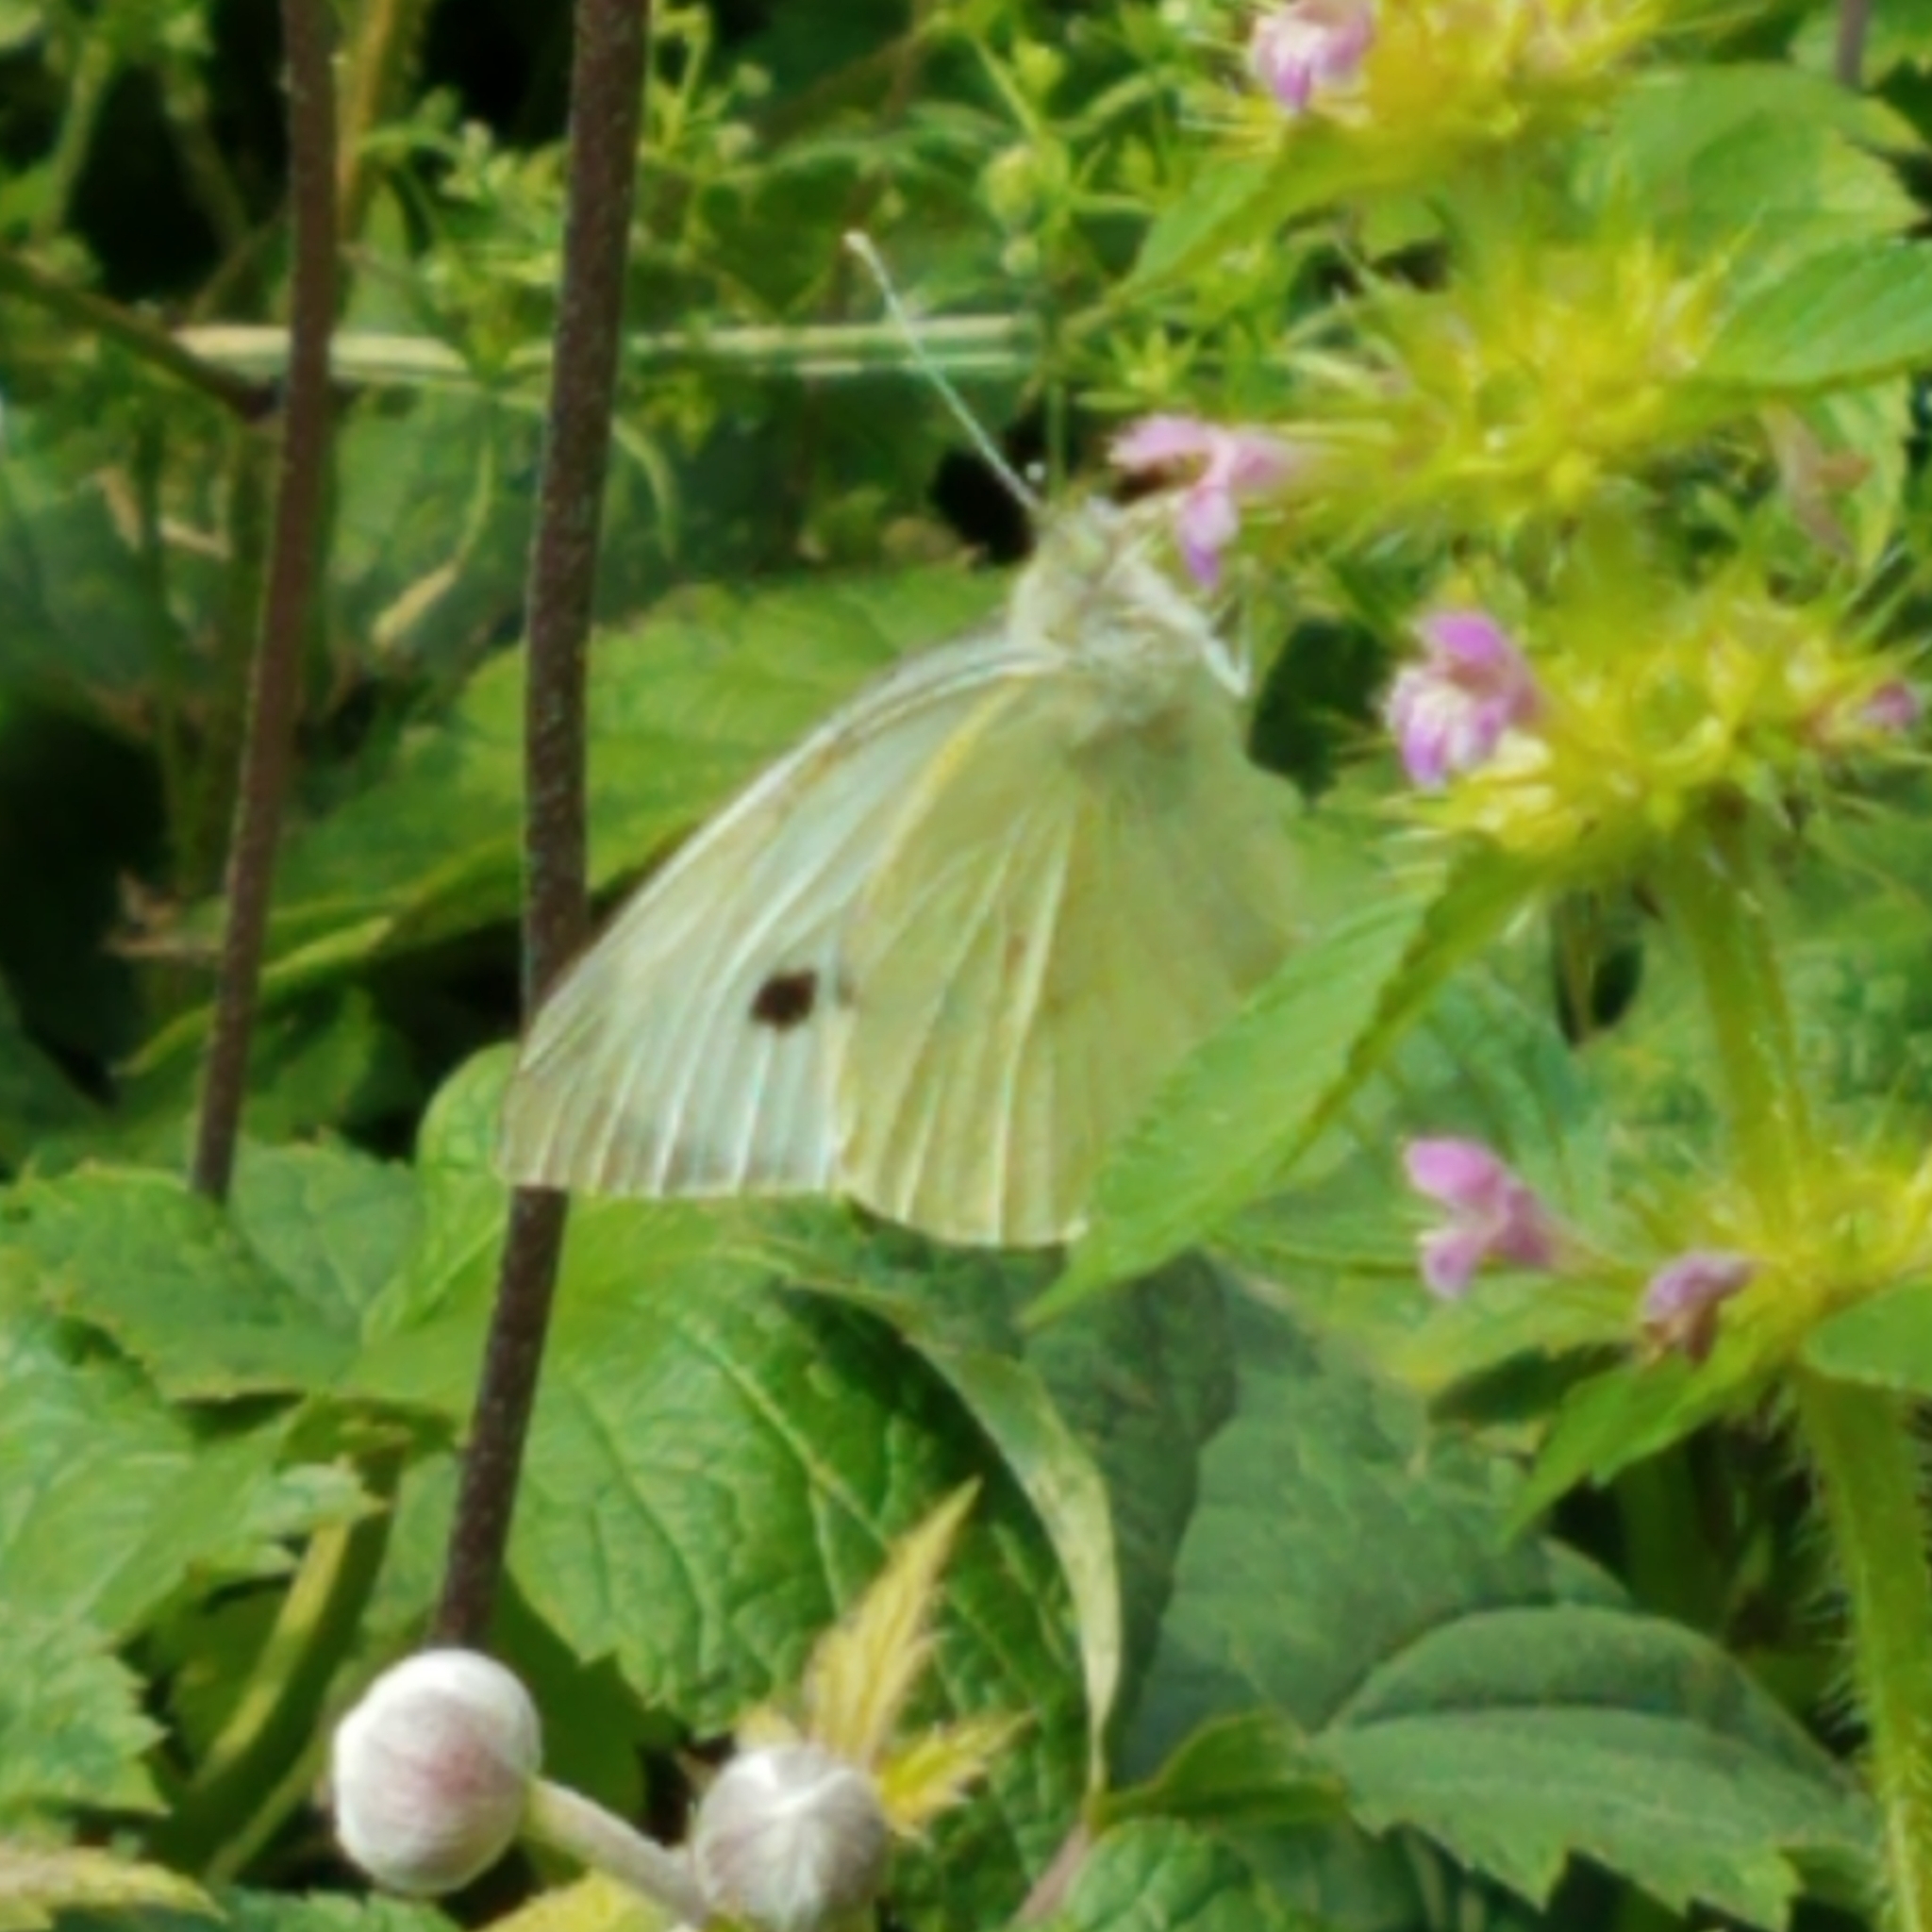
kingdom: Animalia
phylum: Arthropoda
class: Insecta
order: Lepidoptera
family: Pieridae
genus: Pieris
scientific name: Pieris brassicae
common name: Large white
